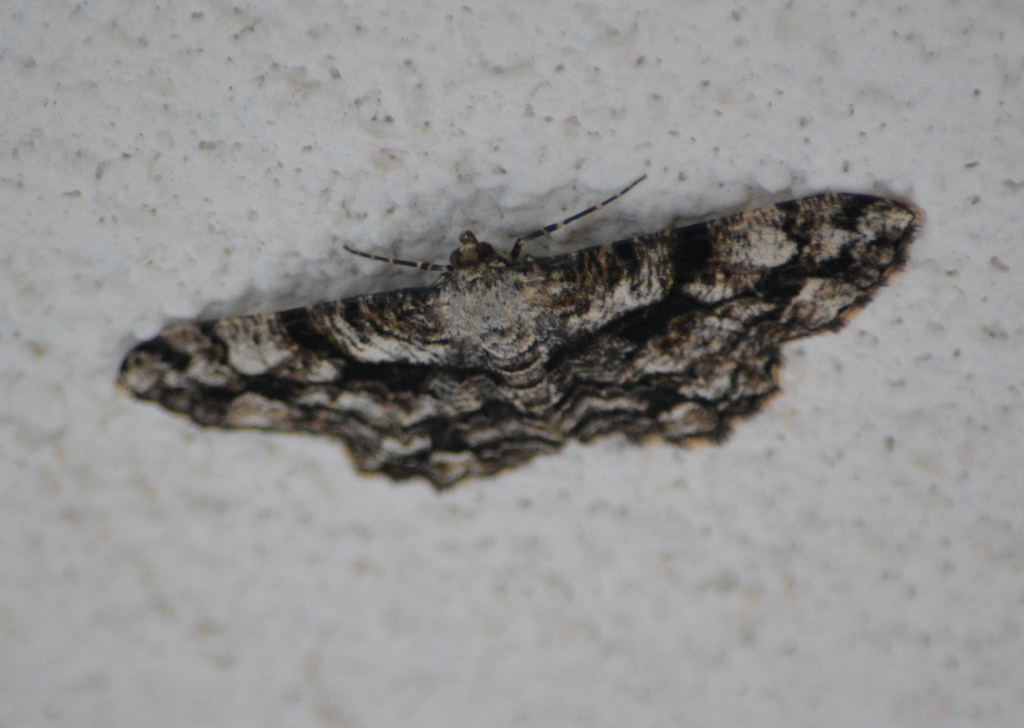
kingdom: Animalia
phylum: Arthropoda
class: Insecta
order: Lepidoptera
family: Geometridae
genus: Peribatodes
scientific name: Peribatodes umbraria
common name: Olive-tree beauty
